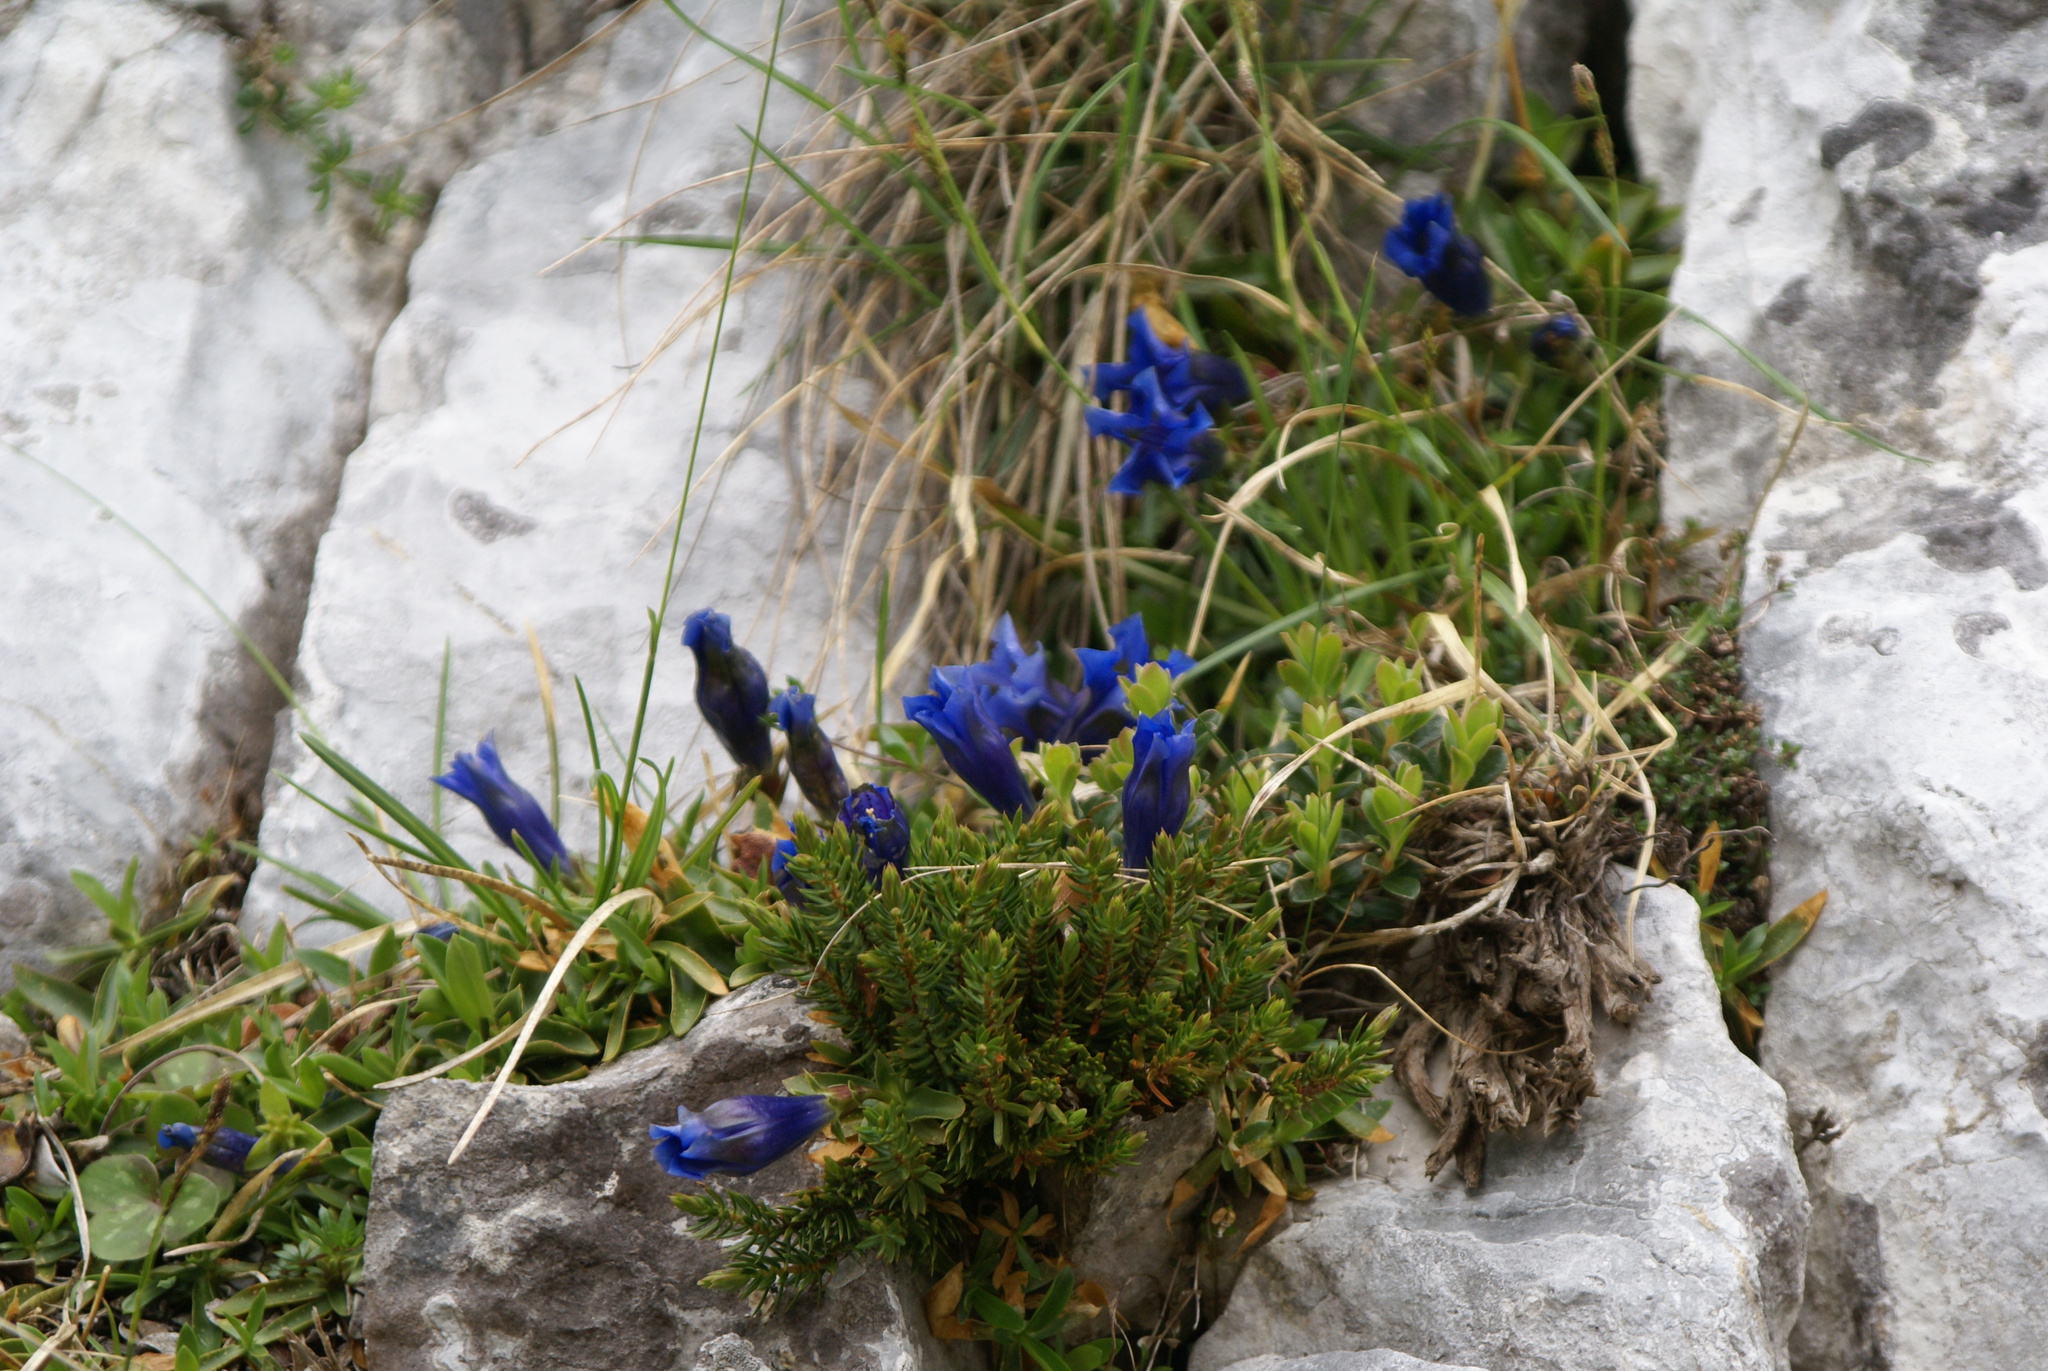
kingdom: Plantae
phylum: Tracheophyta
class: Magnoliopsida
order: Gentianales
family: Gentianaceae
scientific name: Gentianaceae
